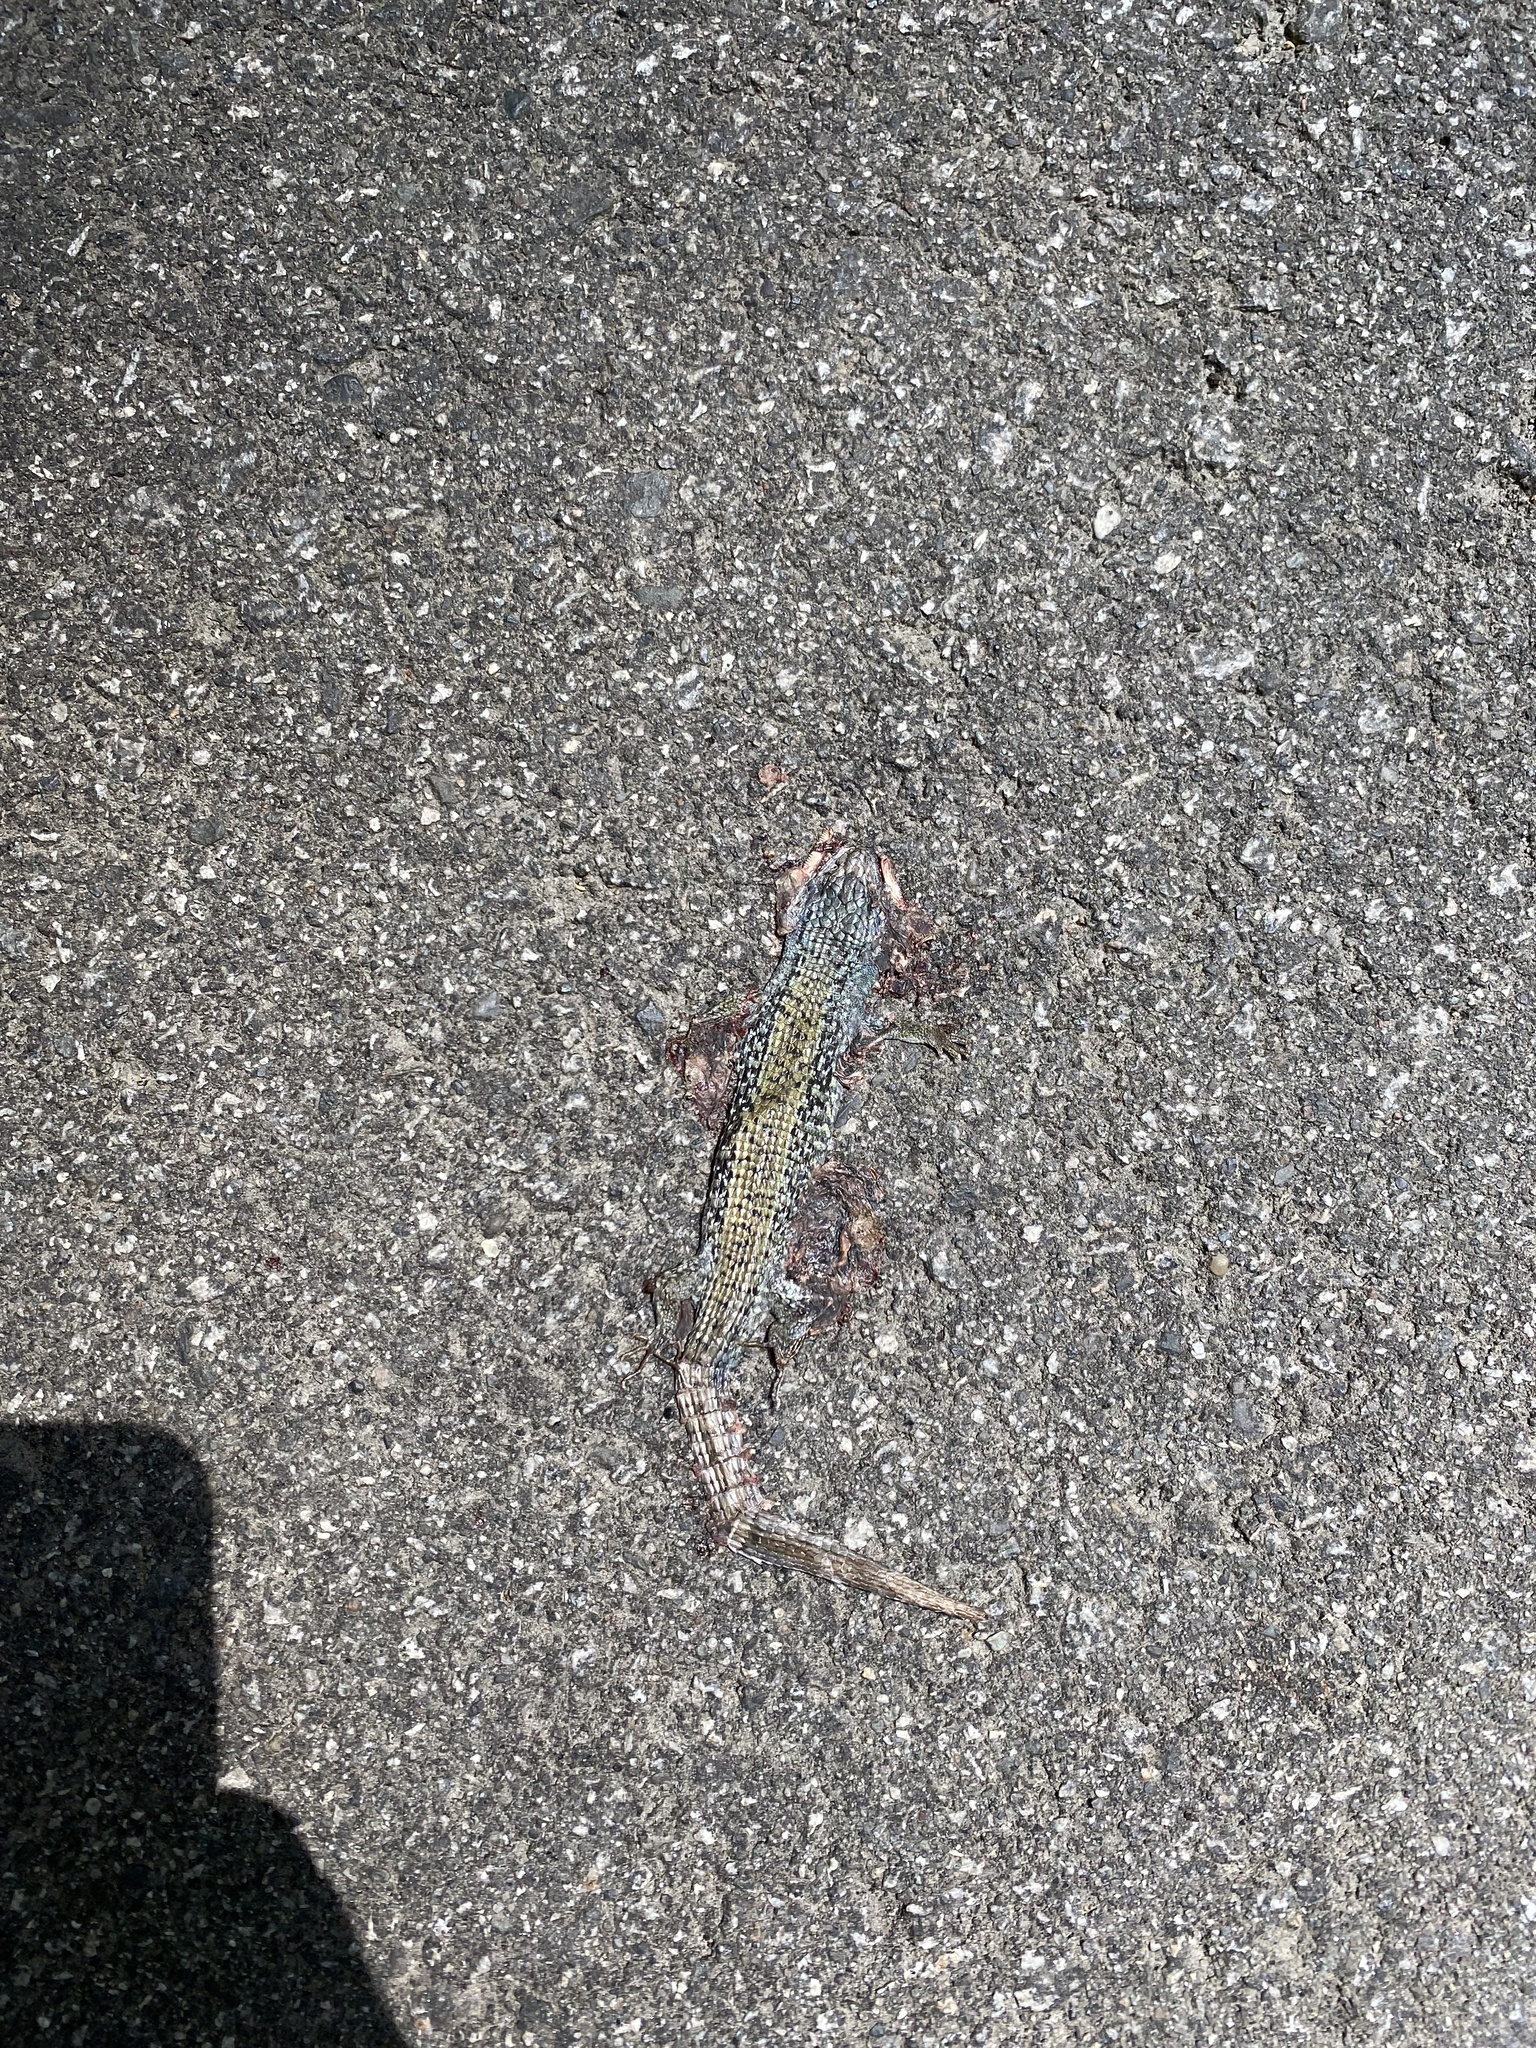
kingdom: Animalia
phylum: Chordata
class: Squamata
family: Anguidae
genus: Elgaria
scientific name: Elgaria coerulea
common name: Northern alligator lizard
